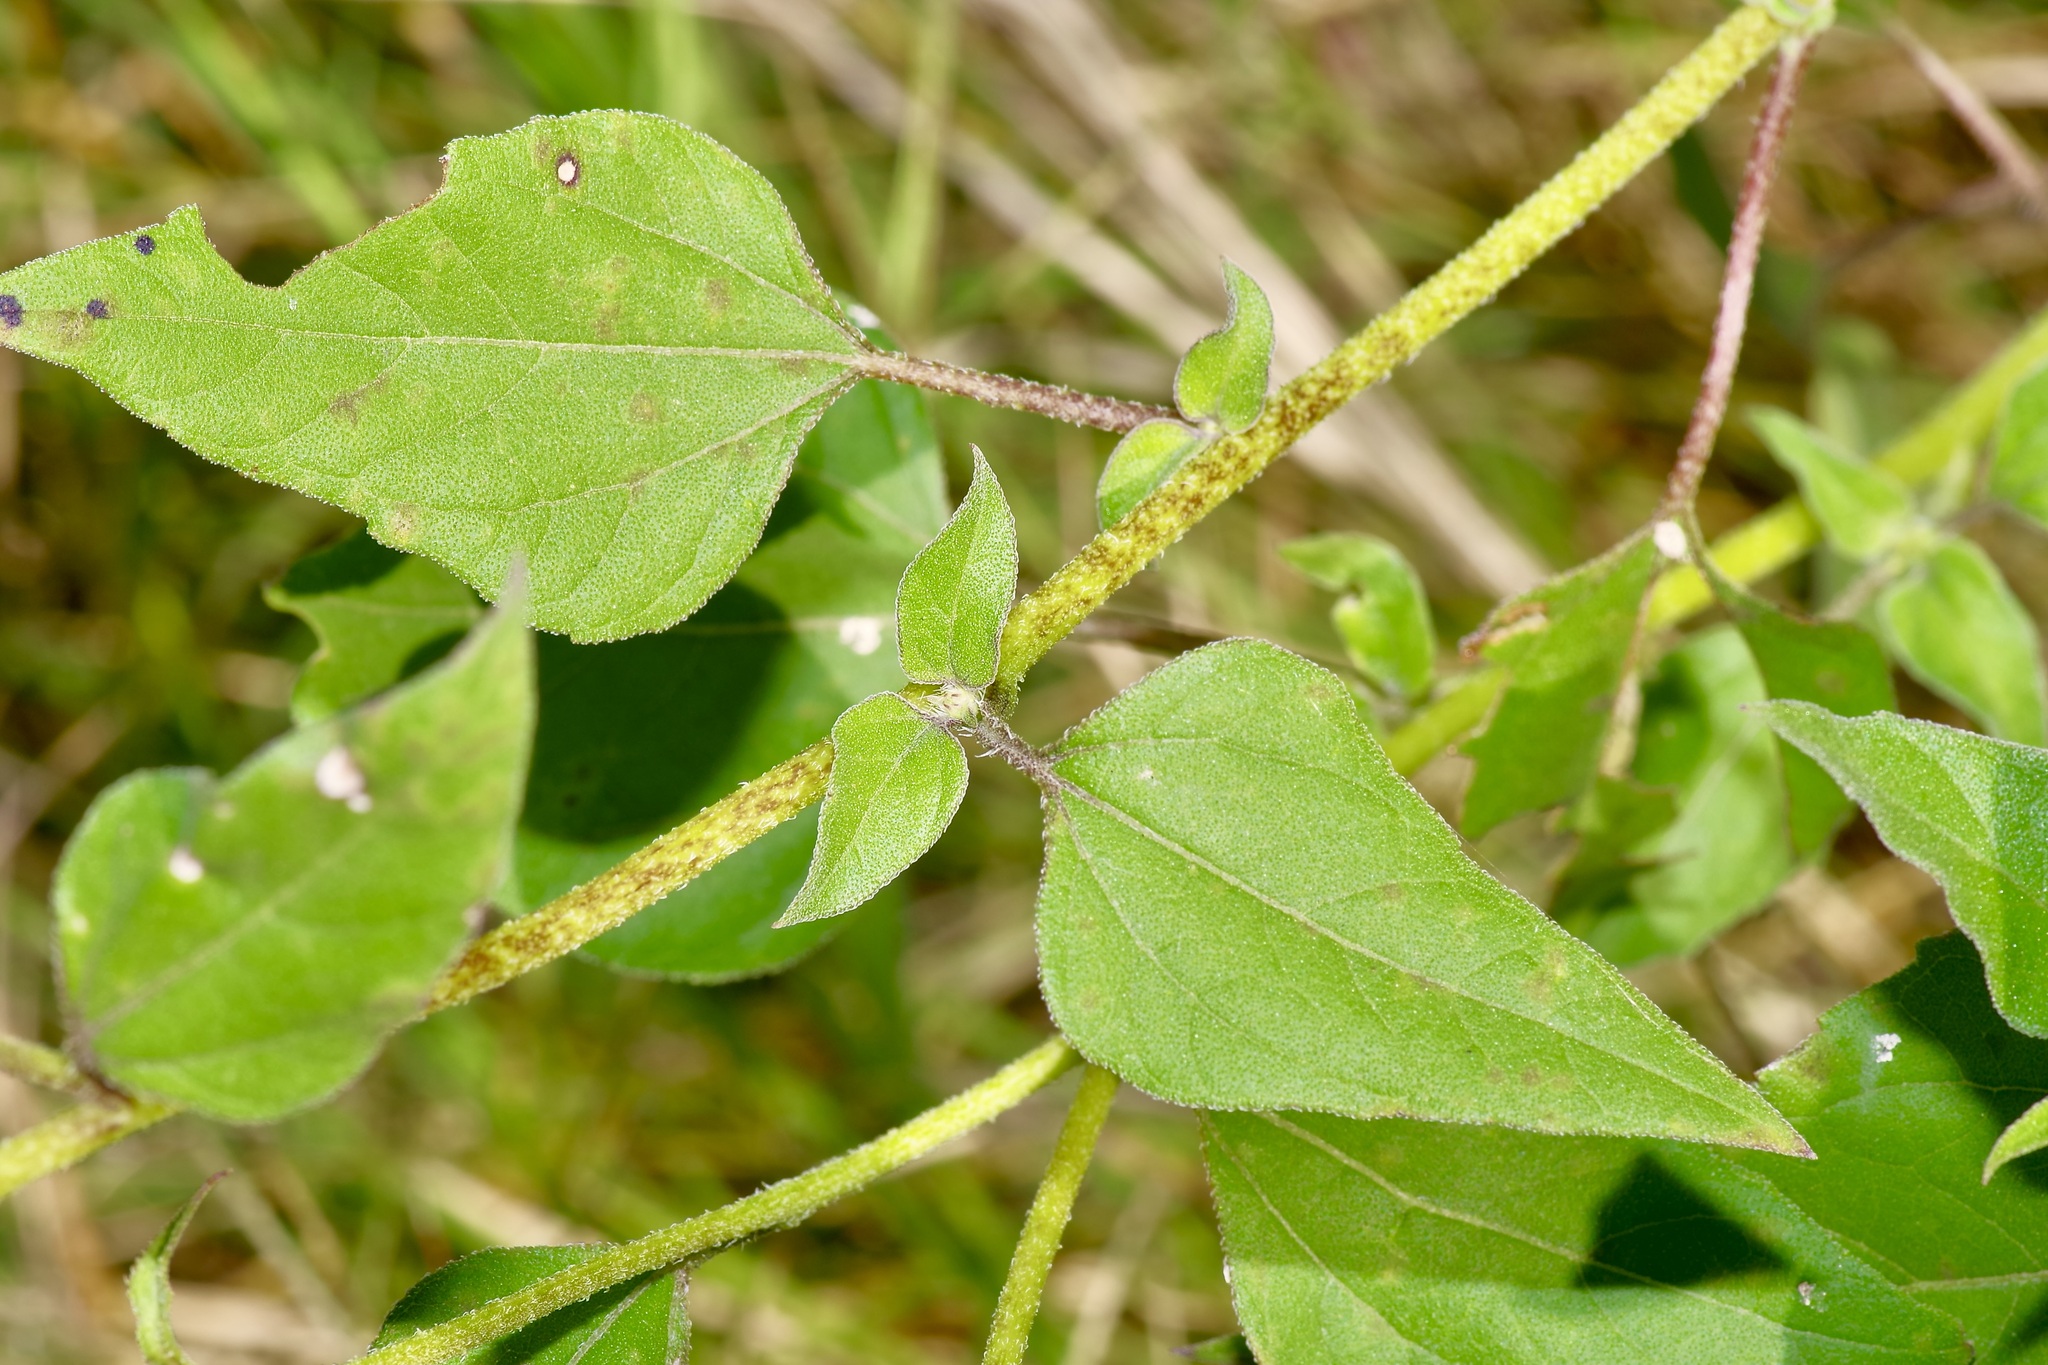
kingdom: Plantae
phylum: Tracheophyta
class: Magnoliopsida
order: Asterales
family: Asteraceae
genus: Helianthus
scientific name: Helianthus praecox
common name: Texas sunflower
